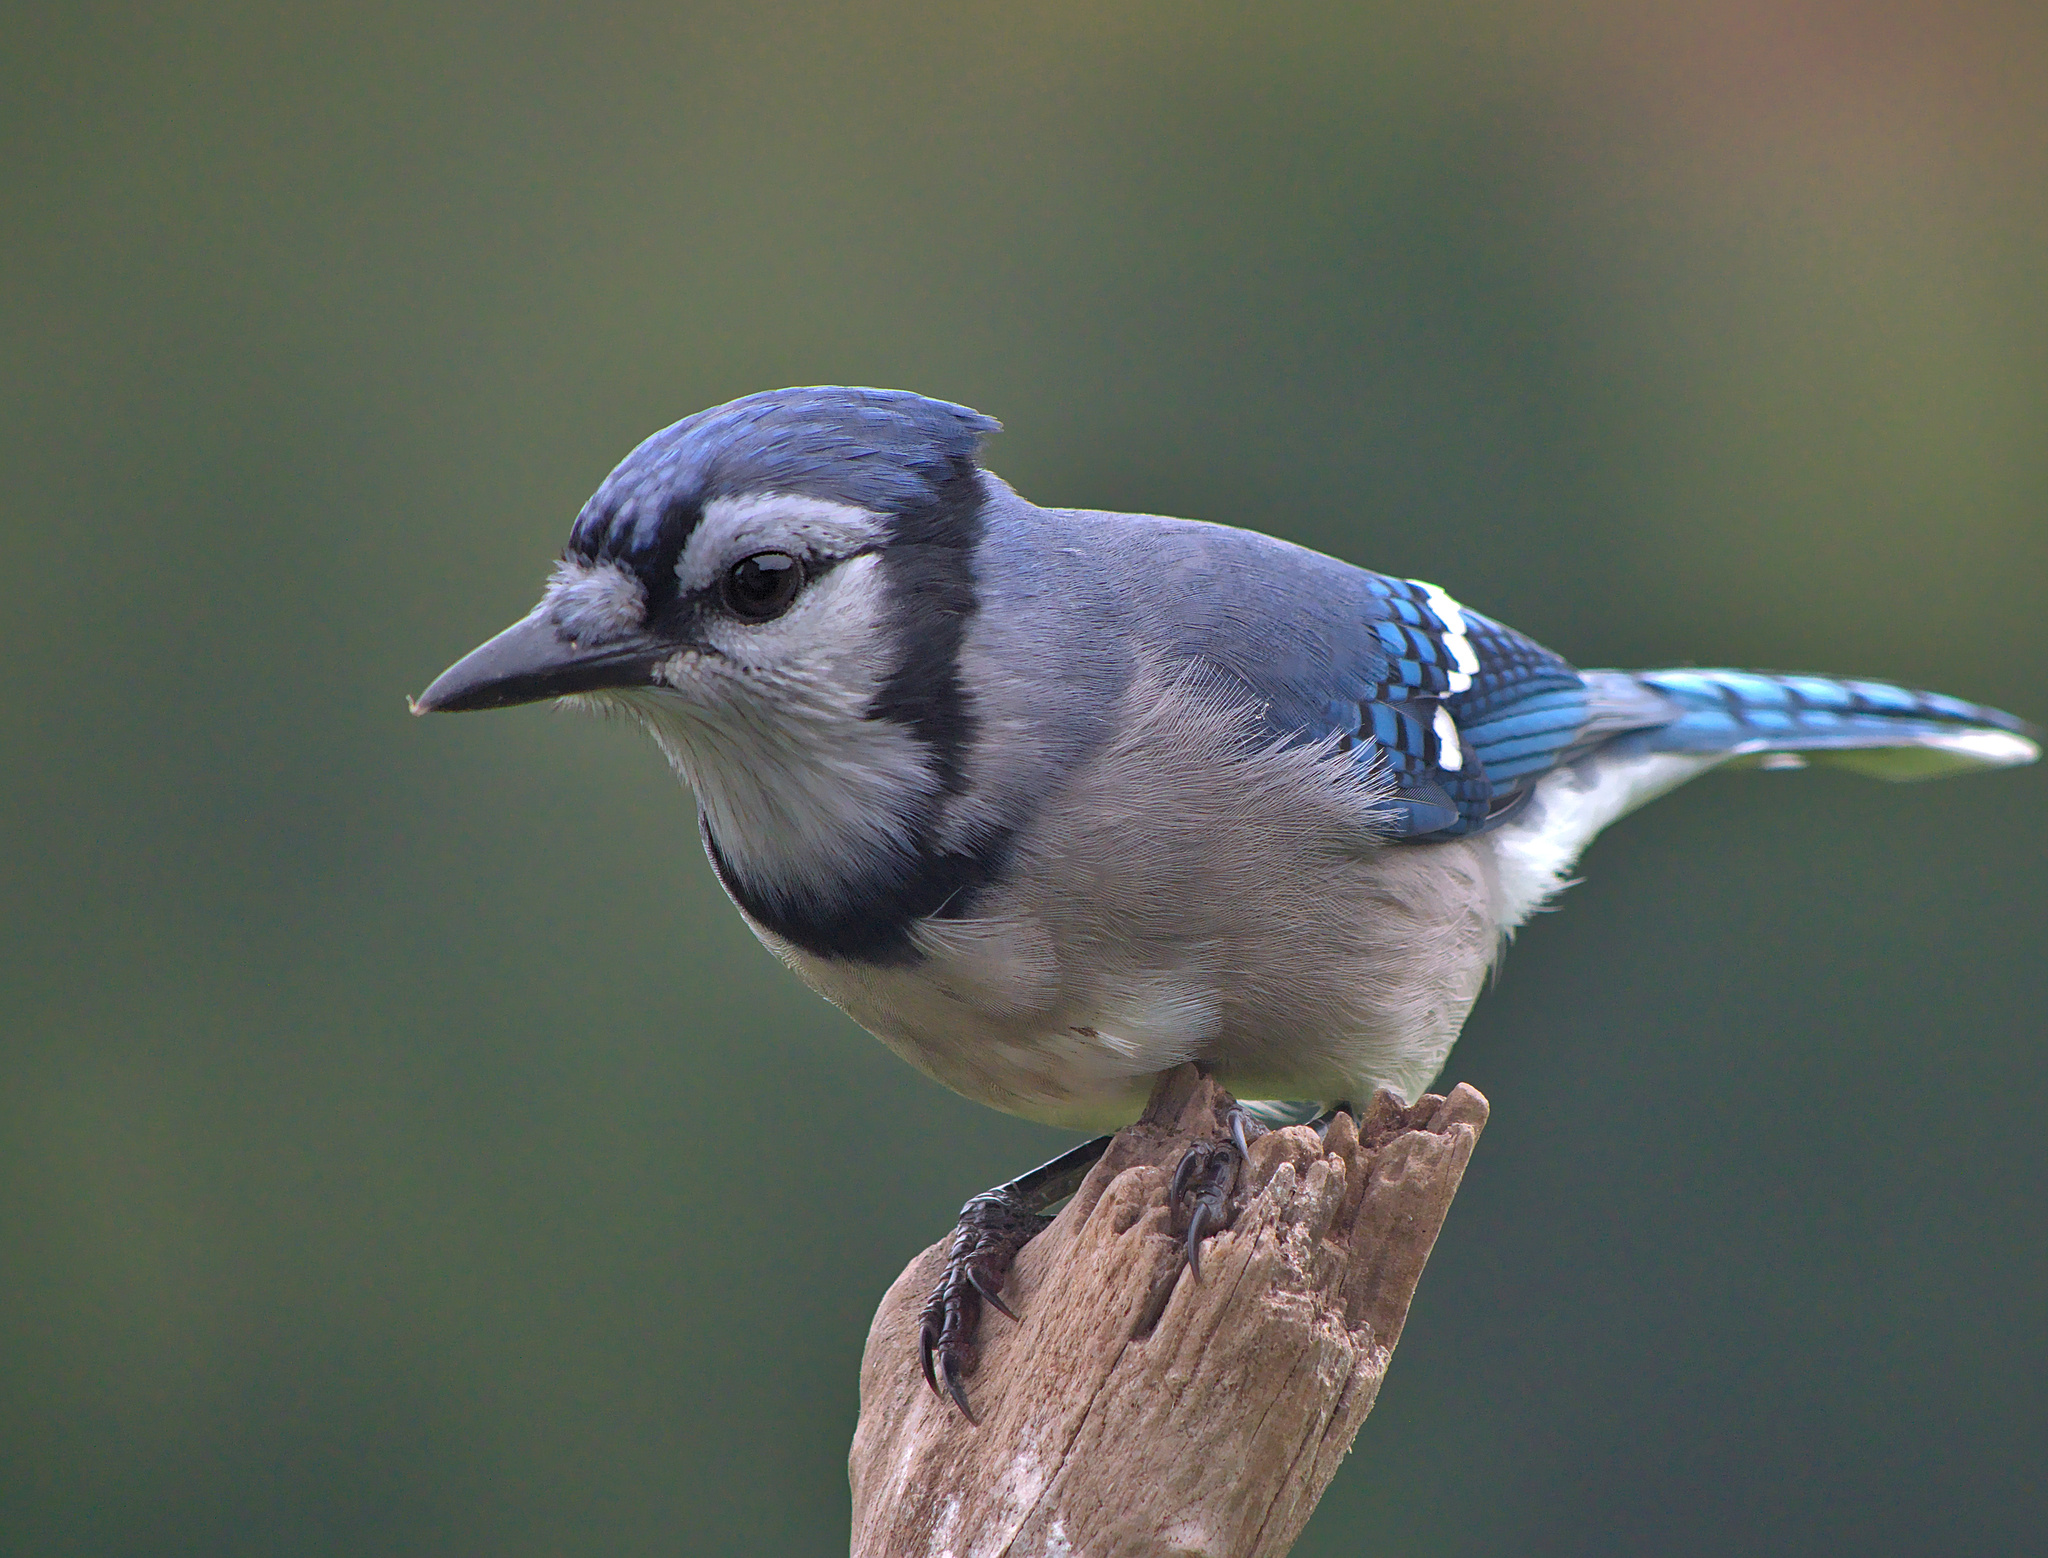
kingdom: Animalia
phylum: Chordata
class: Aves
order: Passeriformes
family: Corvidae
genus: Cyanocitta
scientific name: Cyanocitta cristata
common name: Blue jay
